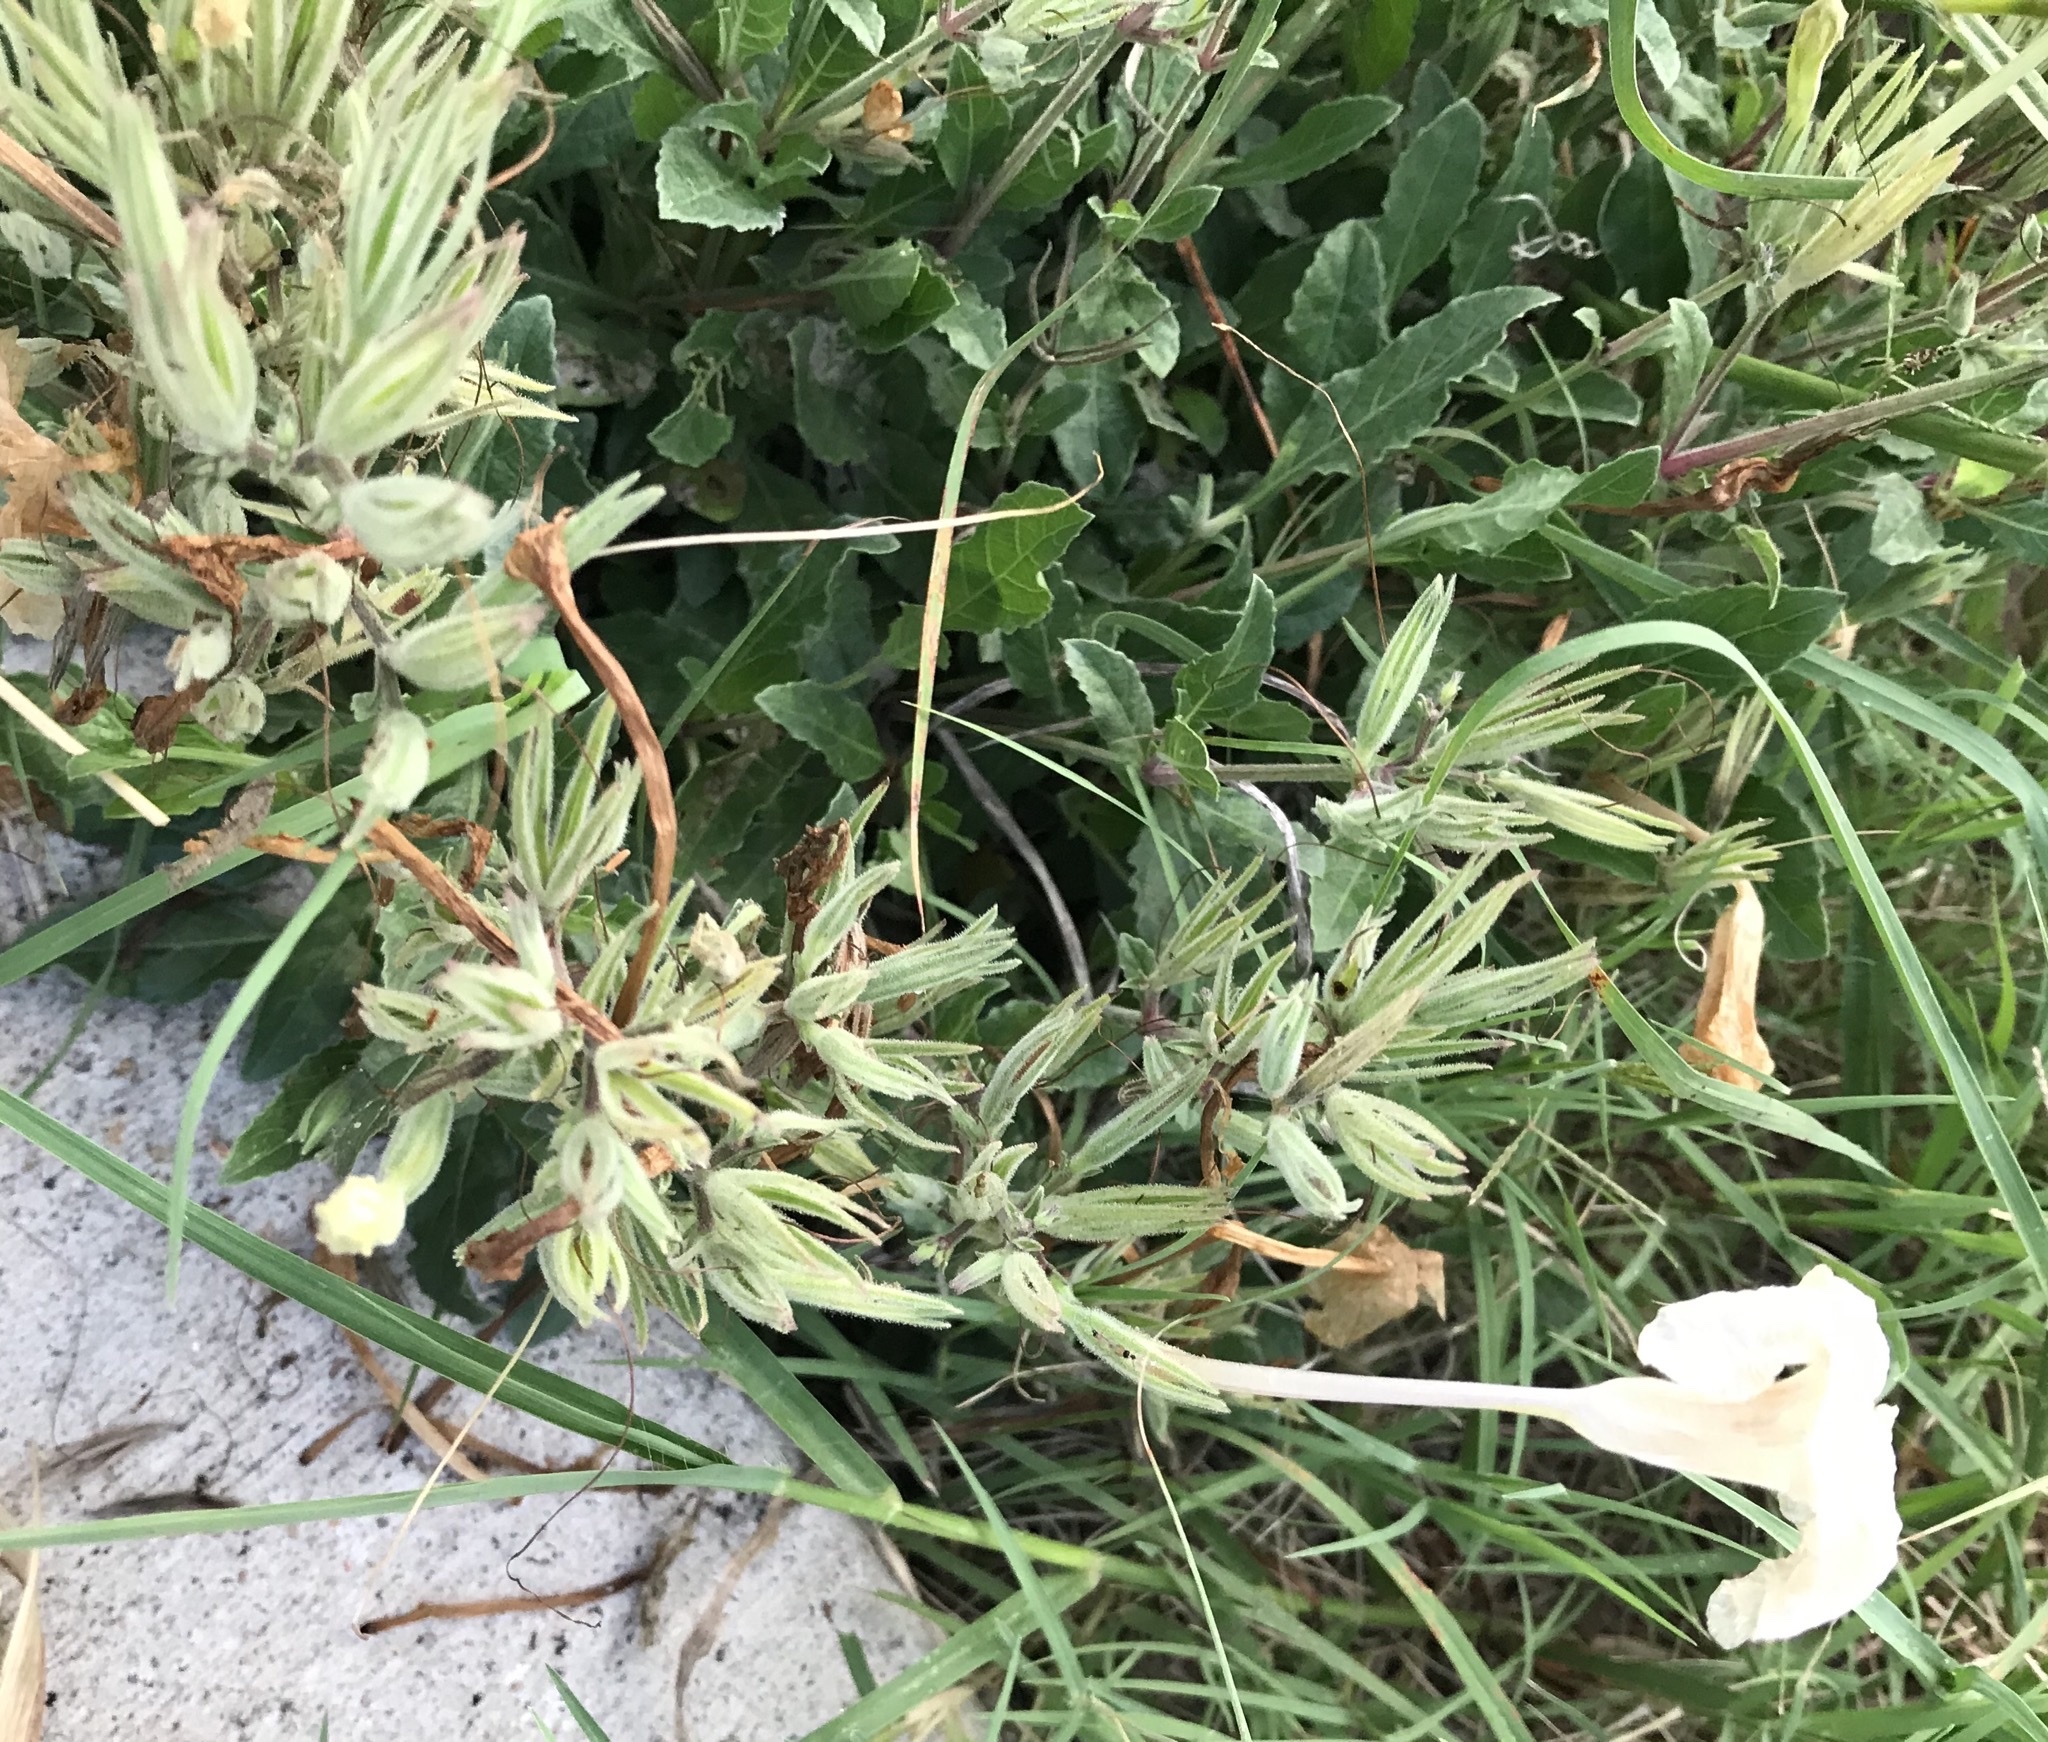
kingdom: Plantae
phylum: Tracheophyta
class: Magnoliopsida
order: Lamiales
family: Acanthaceae
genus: Ruellia
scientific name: Ruellia metziae
